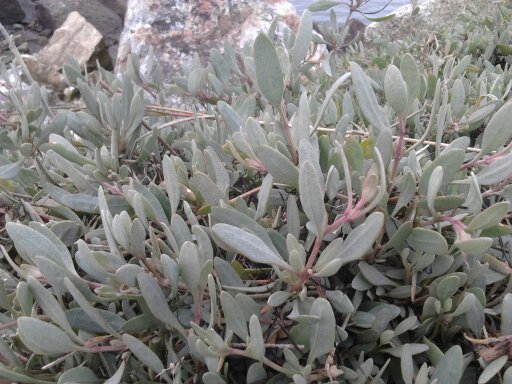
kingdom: Plantae
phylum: Tracheophyta
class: Magnoliopsida
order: Caryophyllales
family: Amaranthaceae
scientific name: Amaranthaceae
